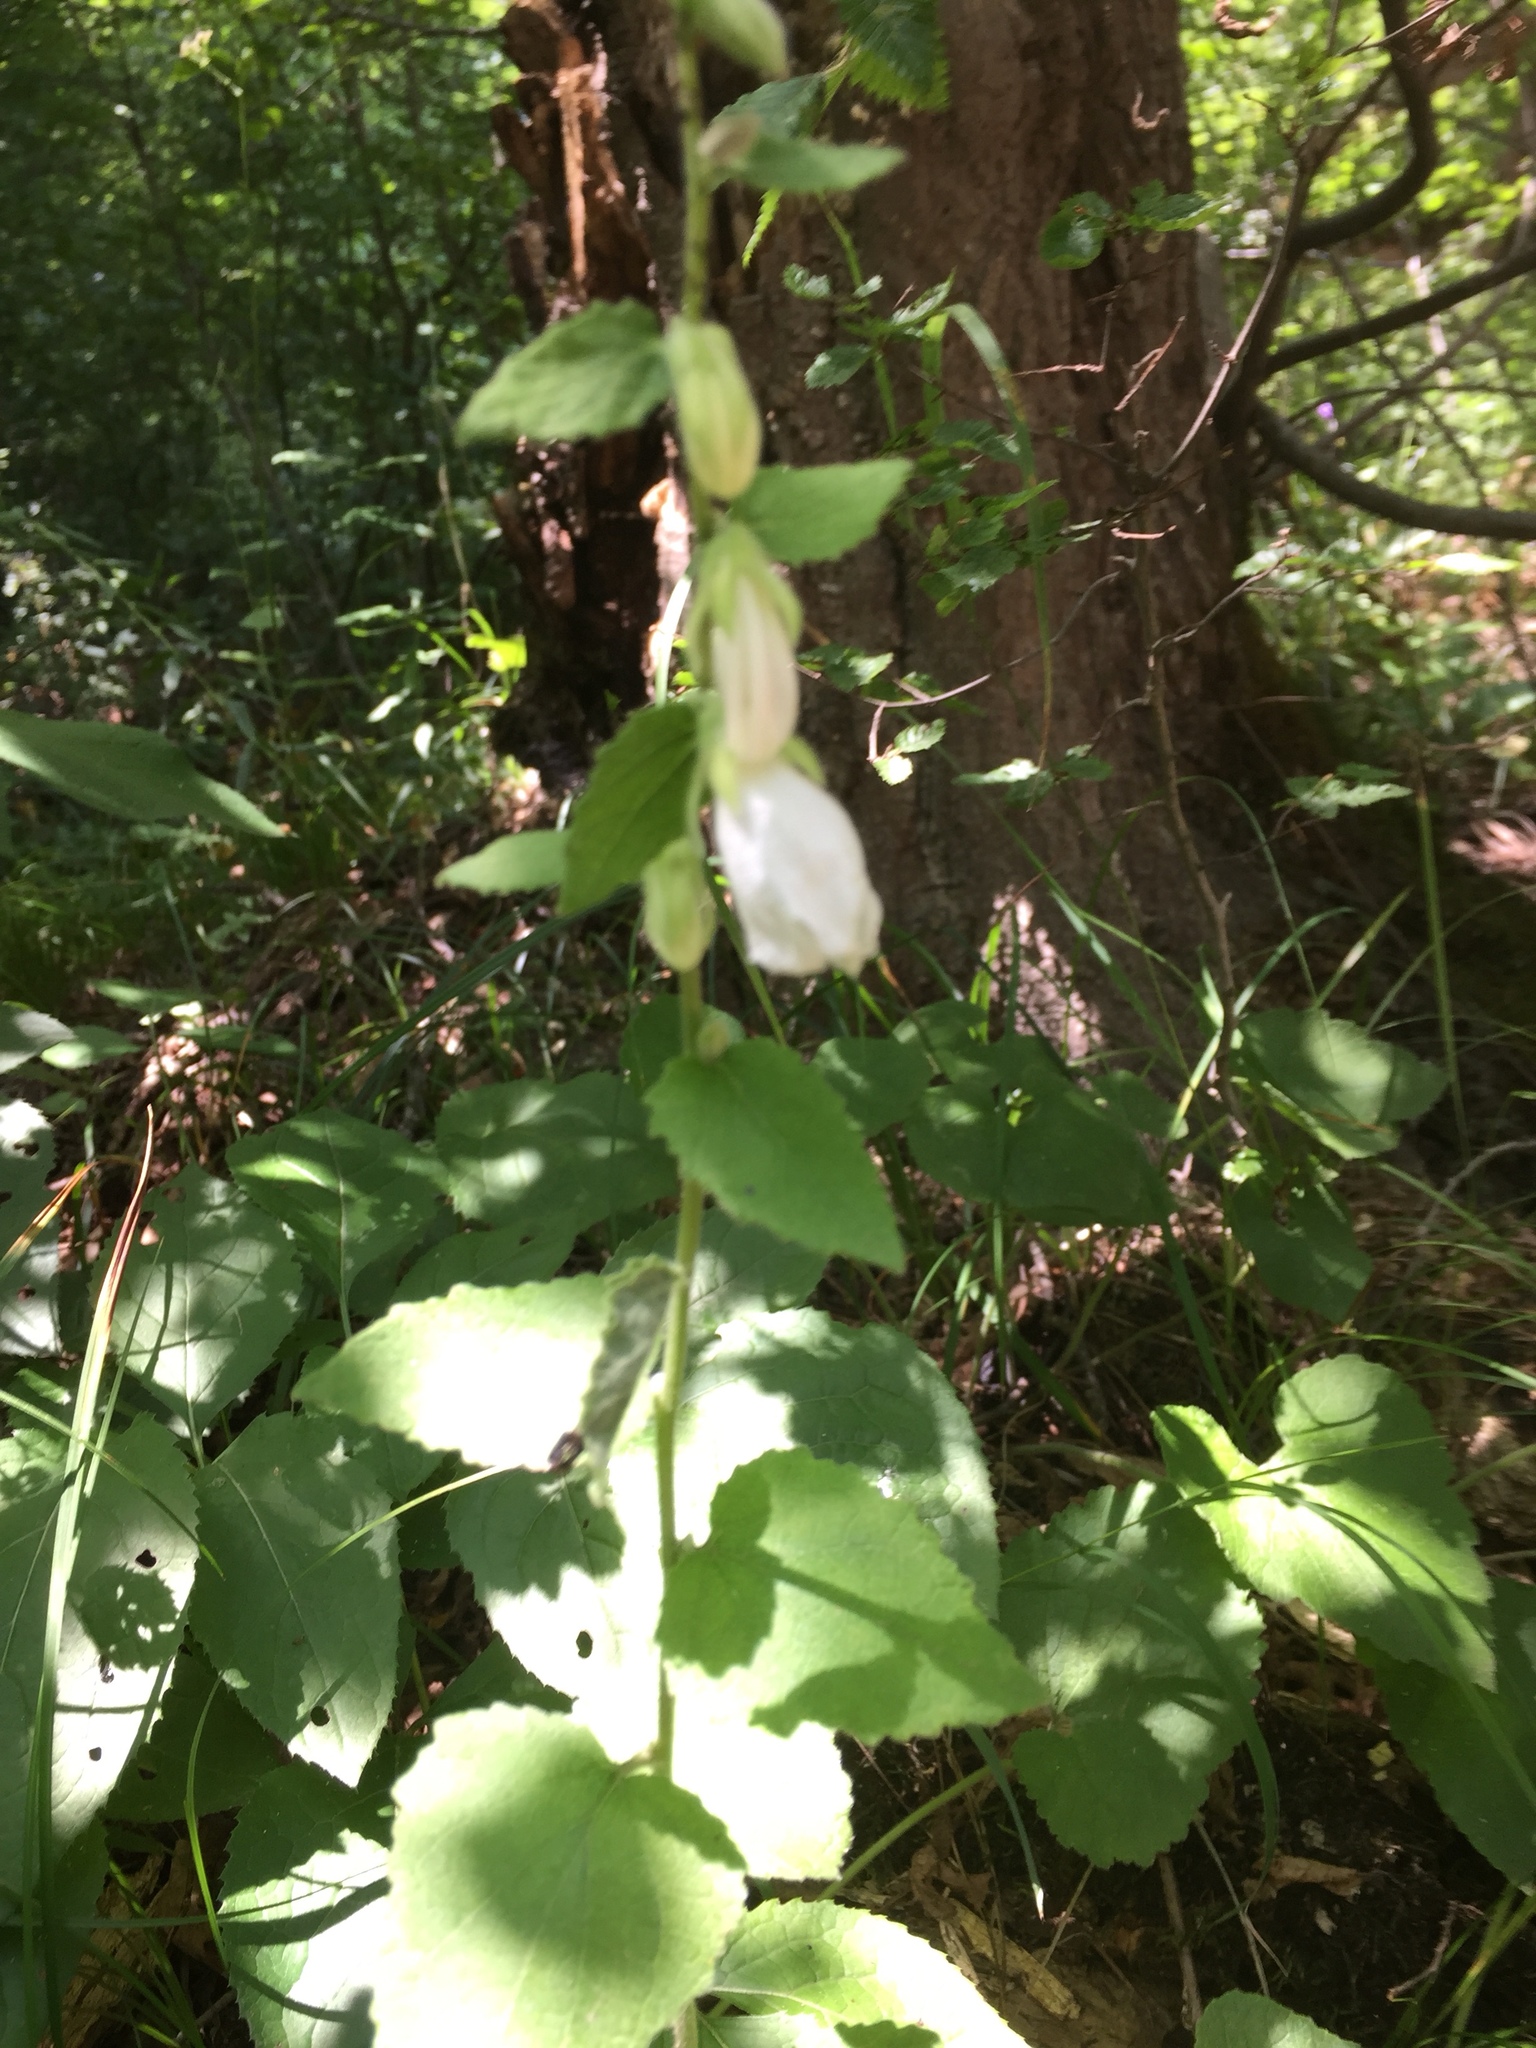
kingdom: Plantae
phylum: Tracheophyta
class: Magnoliopsida
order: Asterales
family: Campanulaceae
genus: Campanula
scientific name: Campanula alliariifolia
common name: Cornish bellflower
